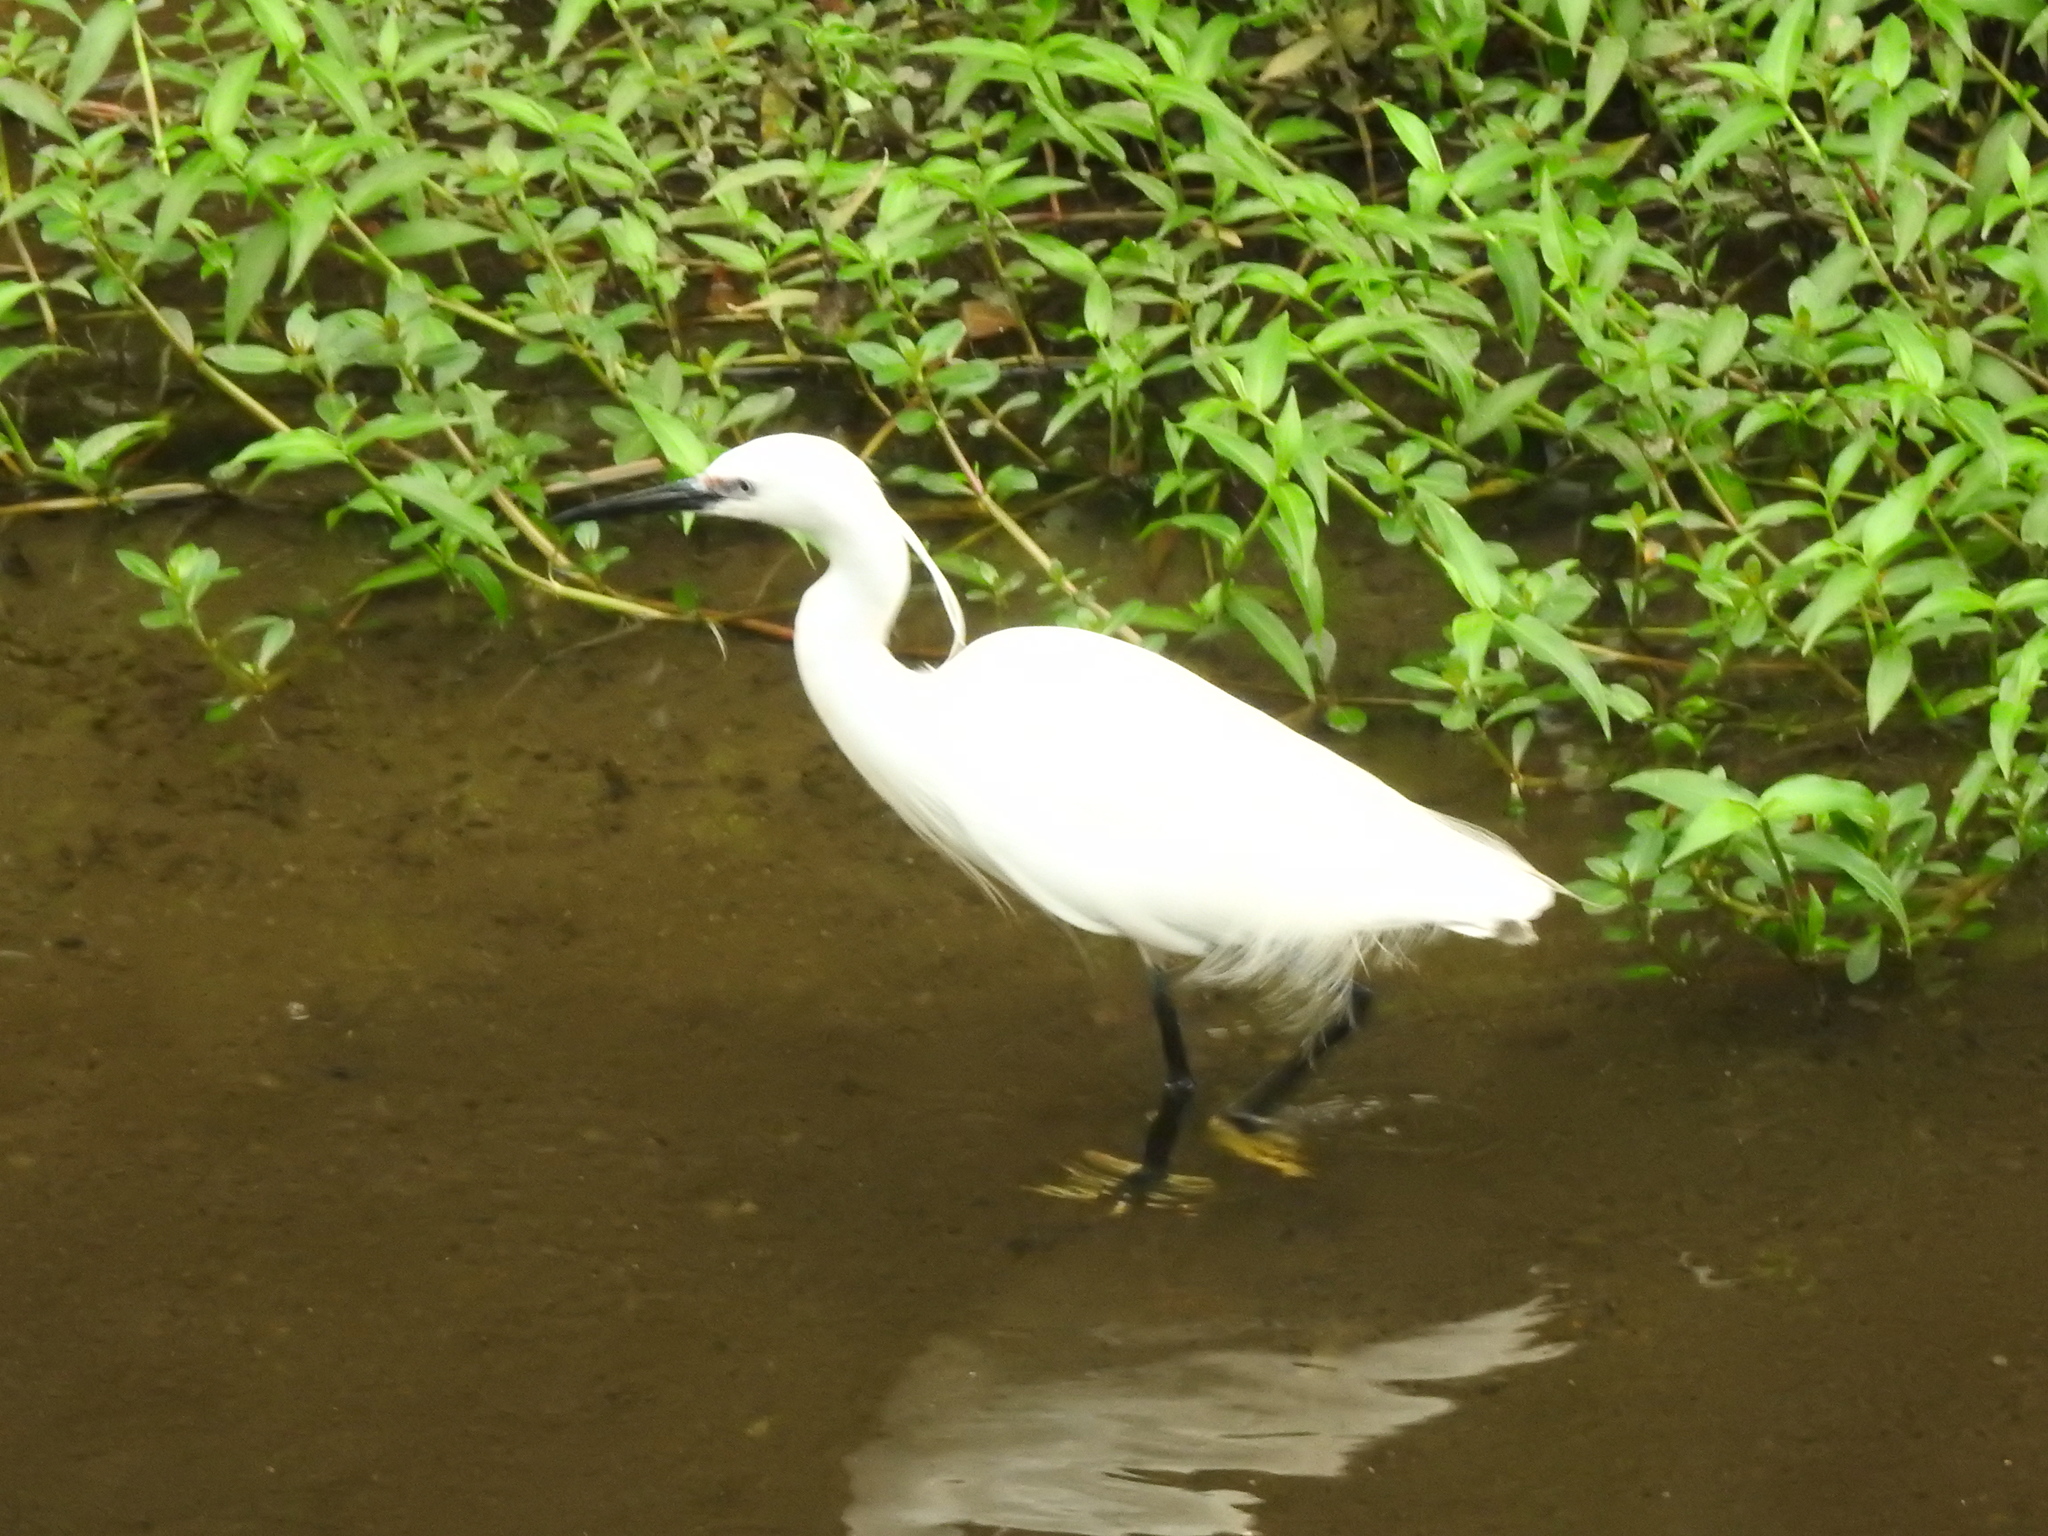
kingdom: Animalia
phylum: Chordata
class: Aves
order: Pelecaniformes
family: Ardeidae
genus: Egretta
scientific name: Egretta garzetta
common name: Little egret
